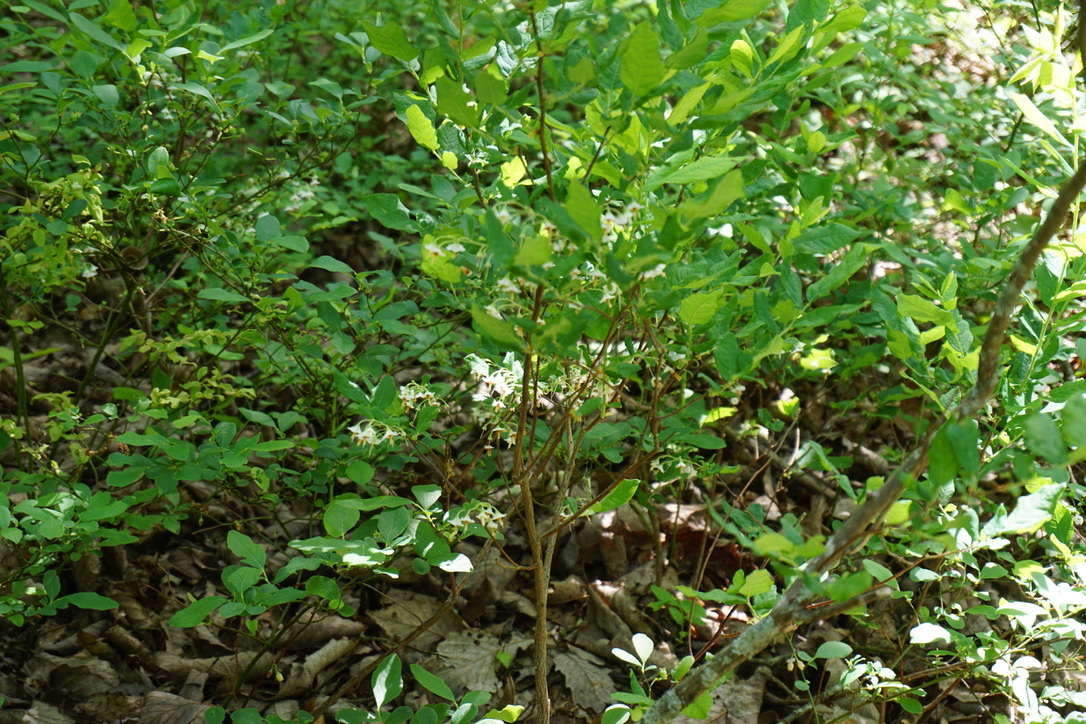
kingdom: Plantae
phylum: Tracheophyta
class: Magnoliopsida
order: Ericales
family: Ericaceae
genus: Vaccinium
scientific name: Vaccinium stamineum
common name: Deerberry
